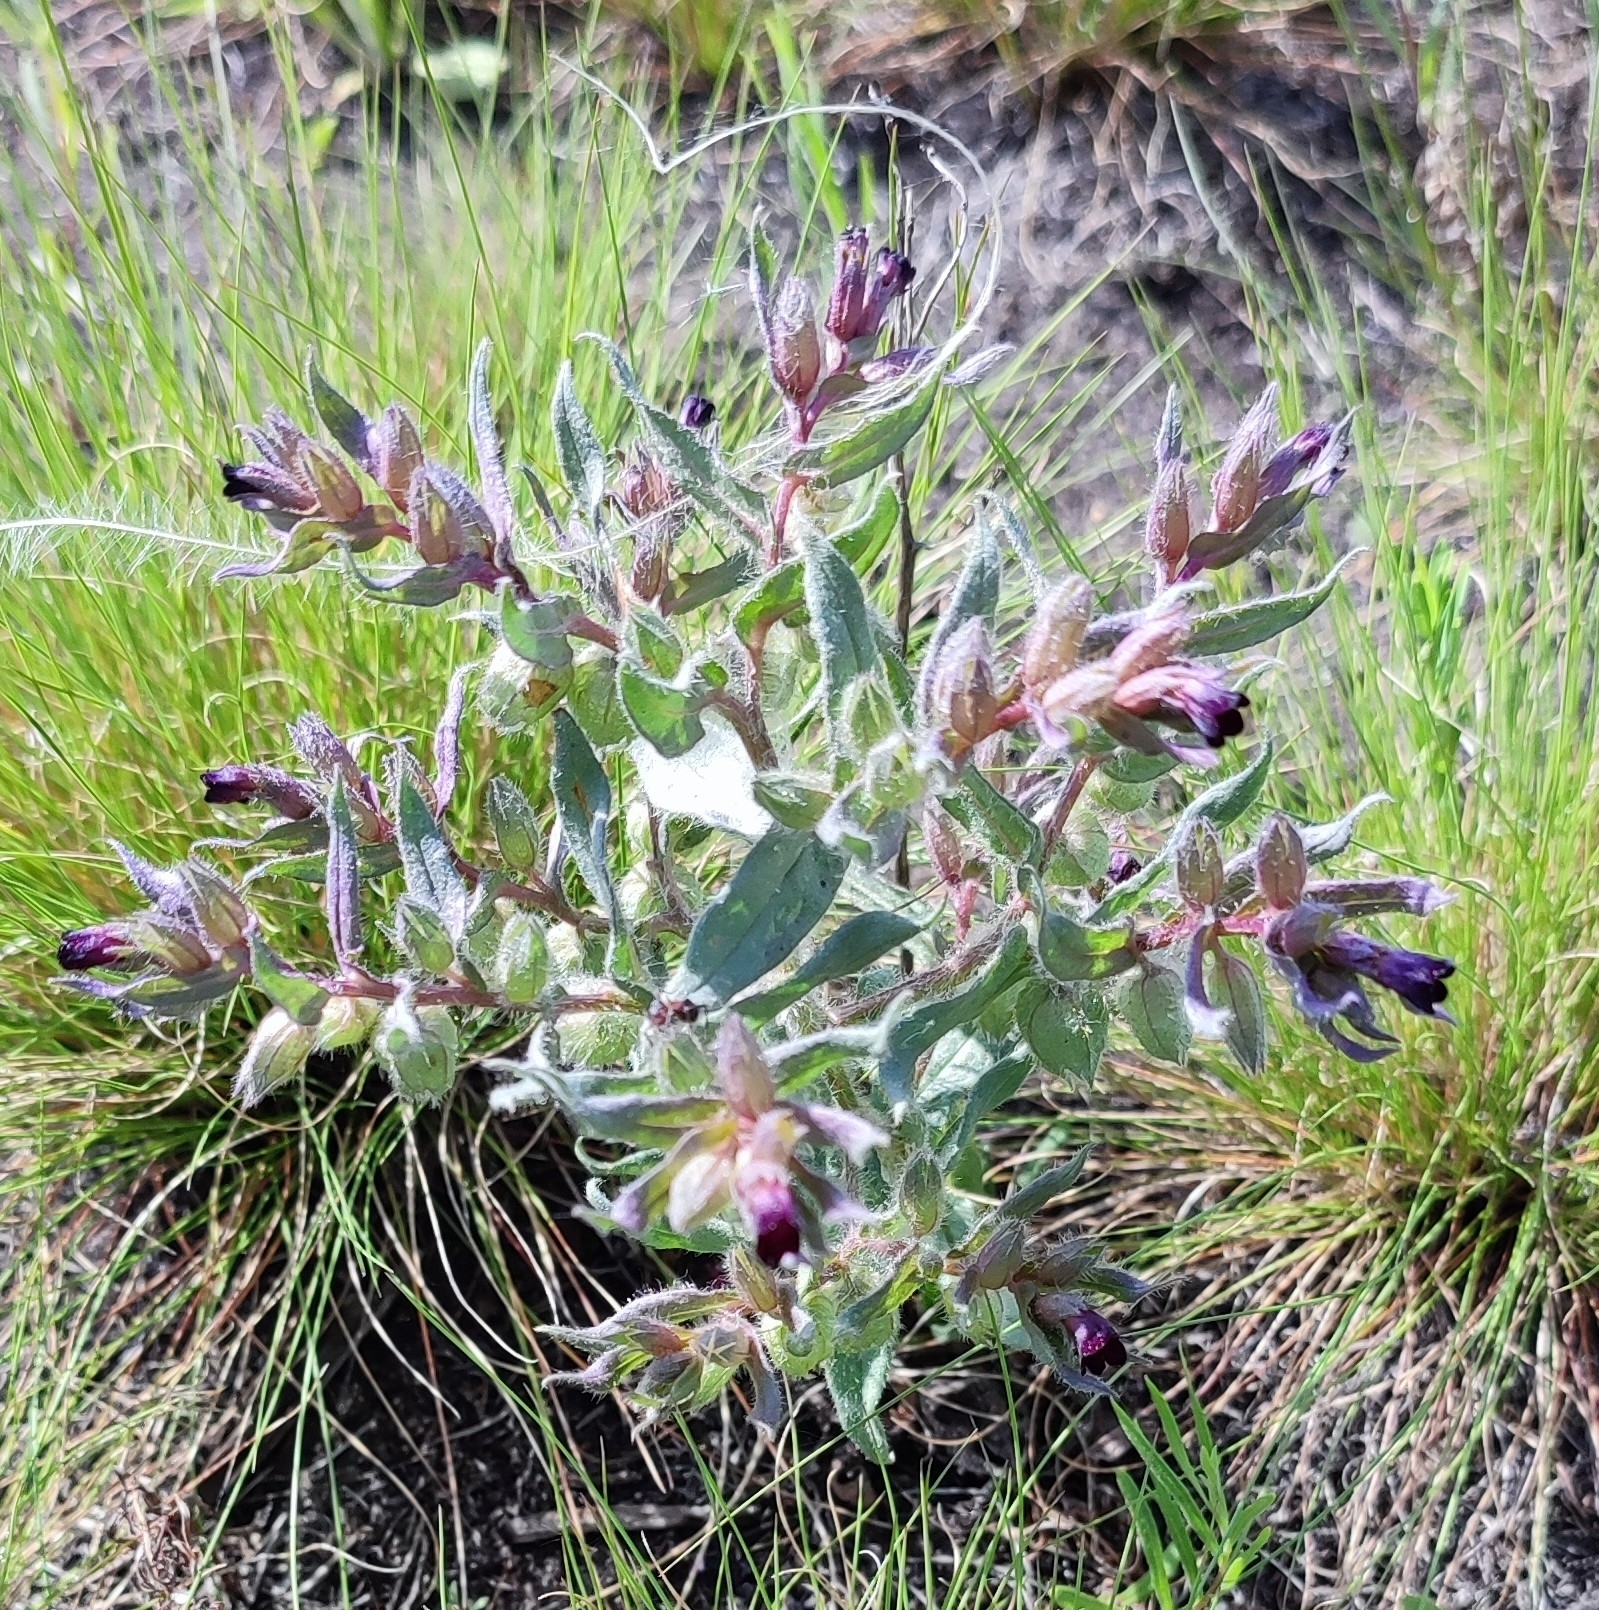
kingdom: Plantae
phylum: Tracheophyta
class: Magnoliopsida
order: Boraginales
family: Boraginaceae
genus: Nonea
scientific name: Nonea pulla
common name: Brown nonea
